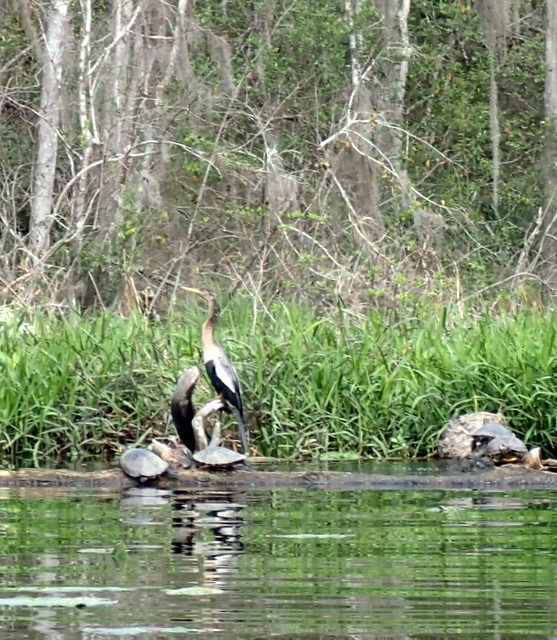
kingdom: Animalia
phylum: Chordata
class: Aves
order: Suliformes
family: Anhingidae
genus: Anhinga
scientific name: Anhinga anhinga
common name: Anhinga
